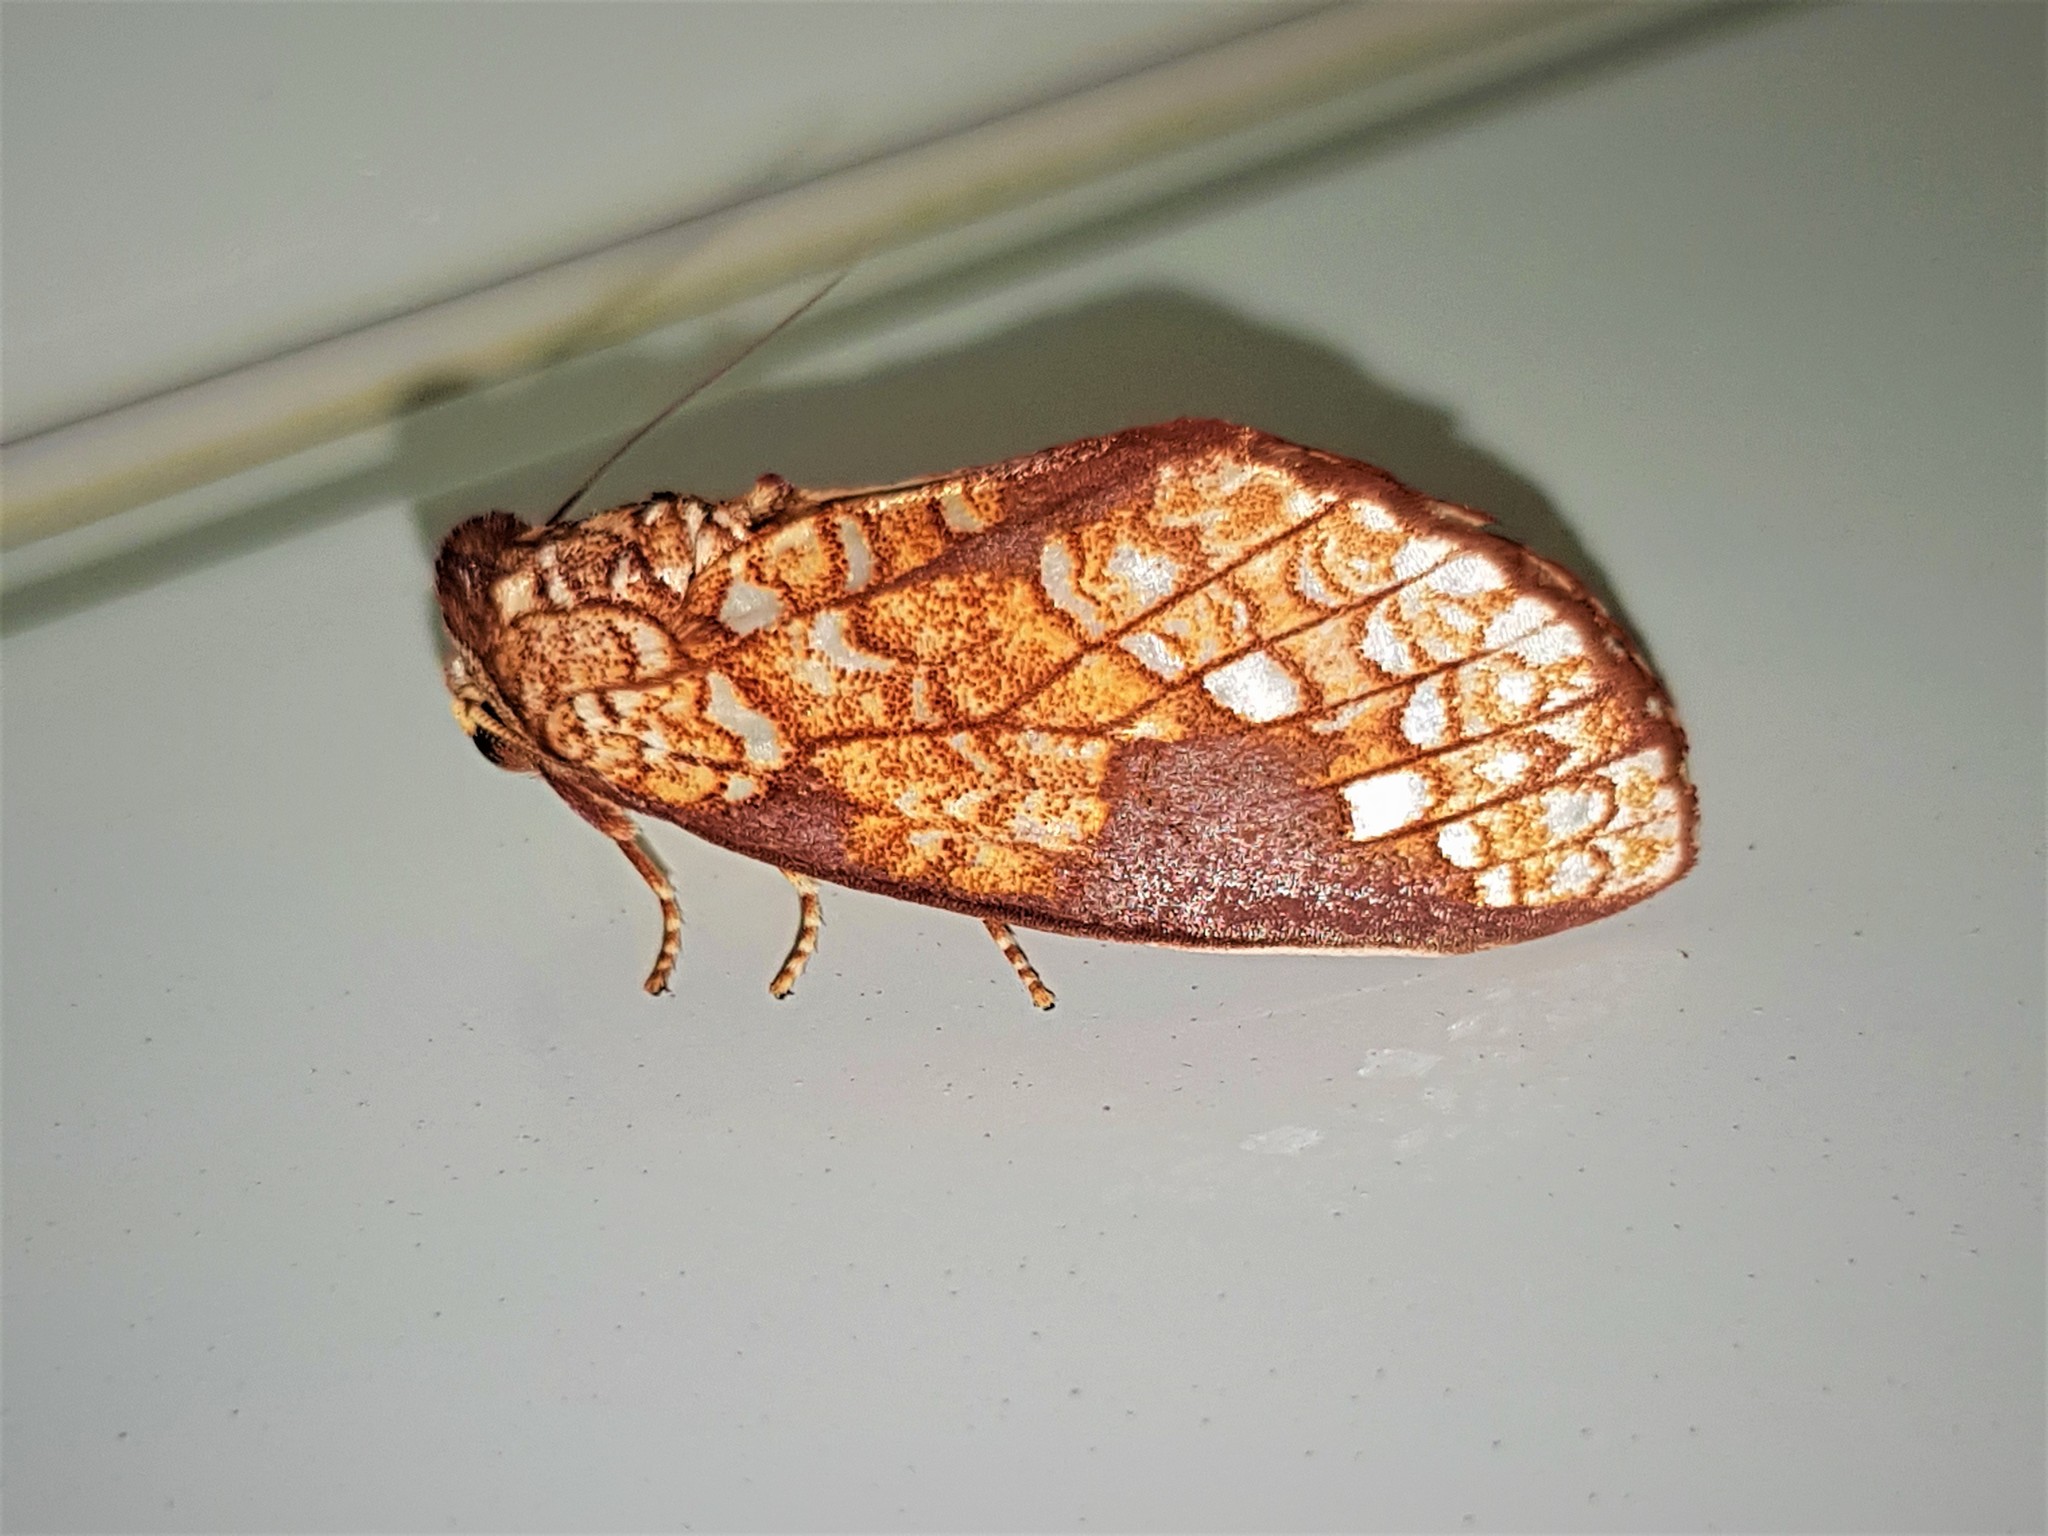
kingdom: Animalia
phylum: Arthropoda
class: Insecta
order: Lepidoptera
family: Notodontidae
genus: Argentiza
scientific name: Argentiza
